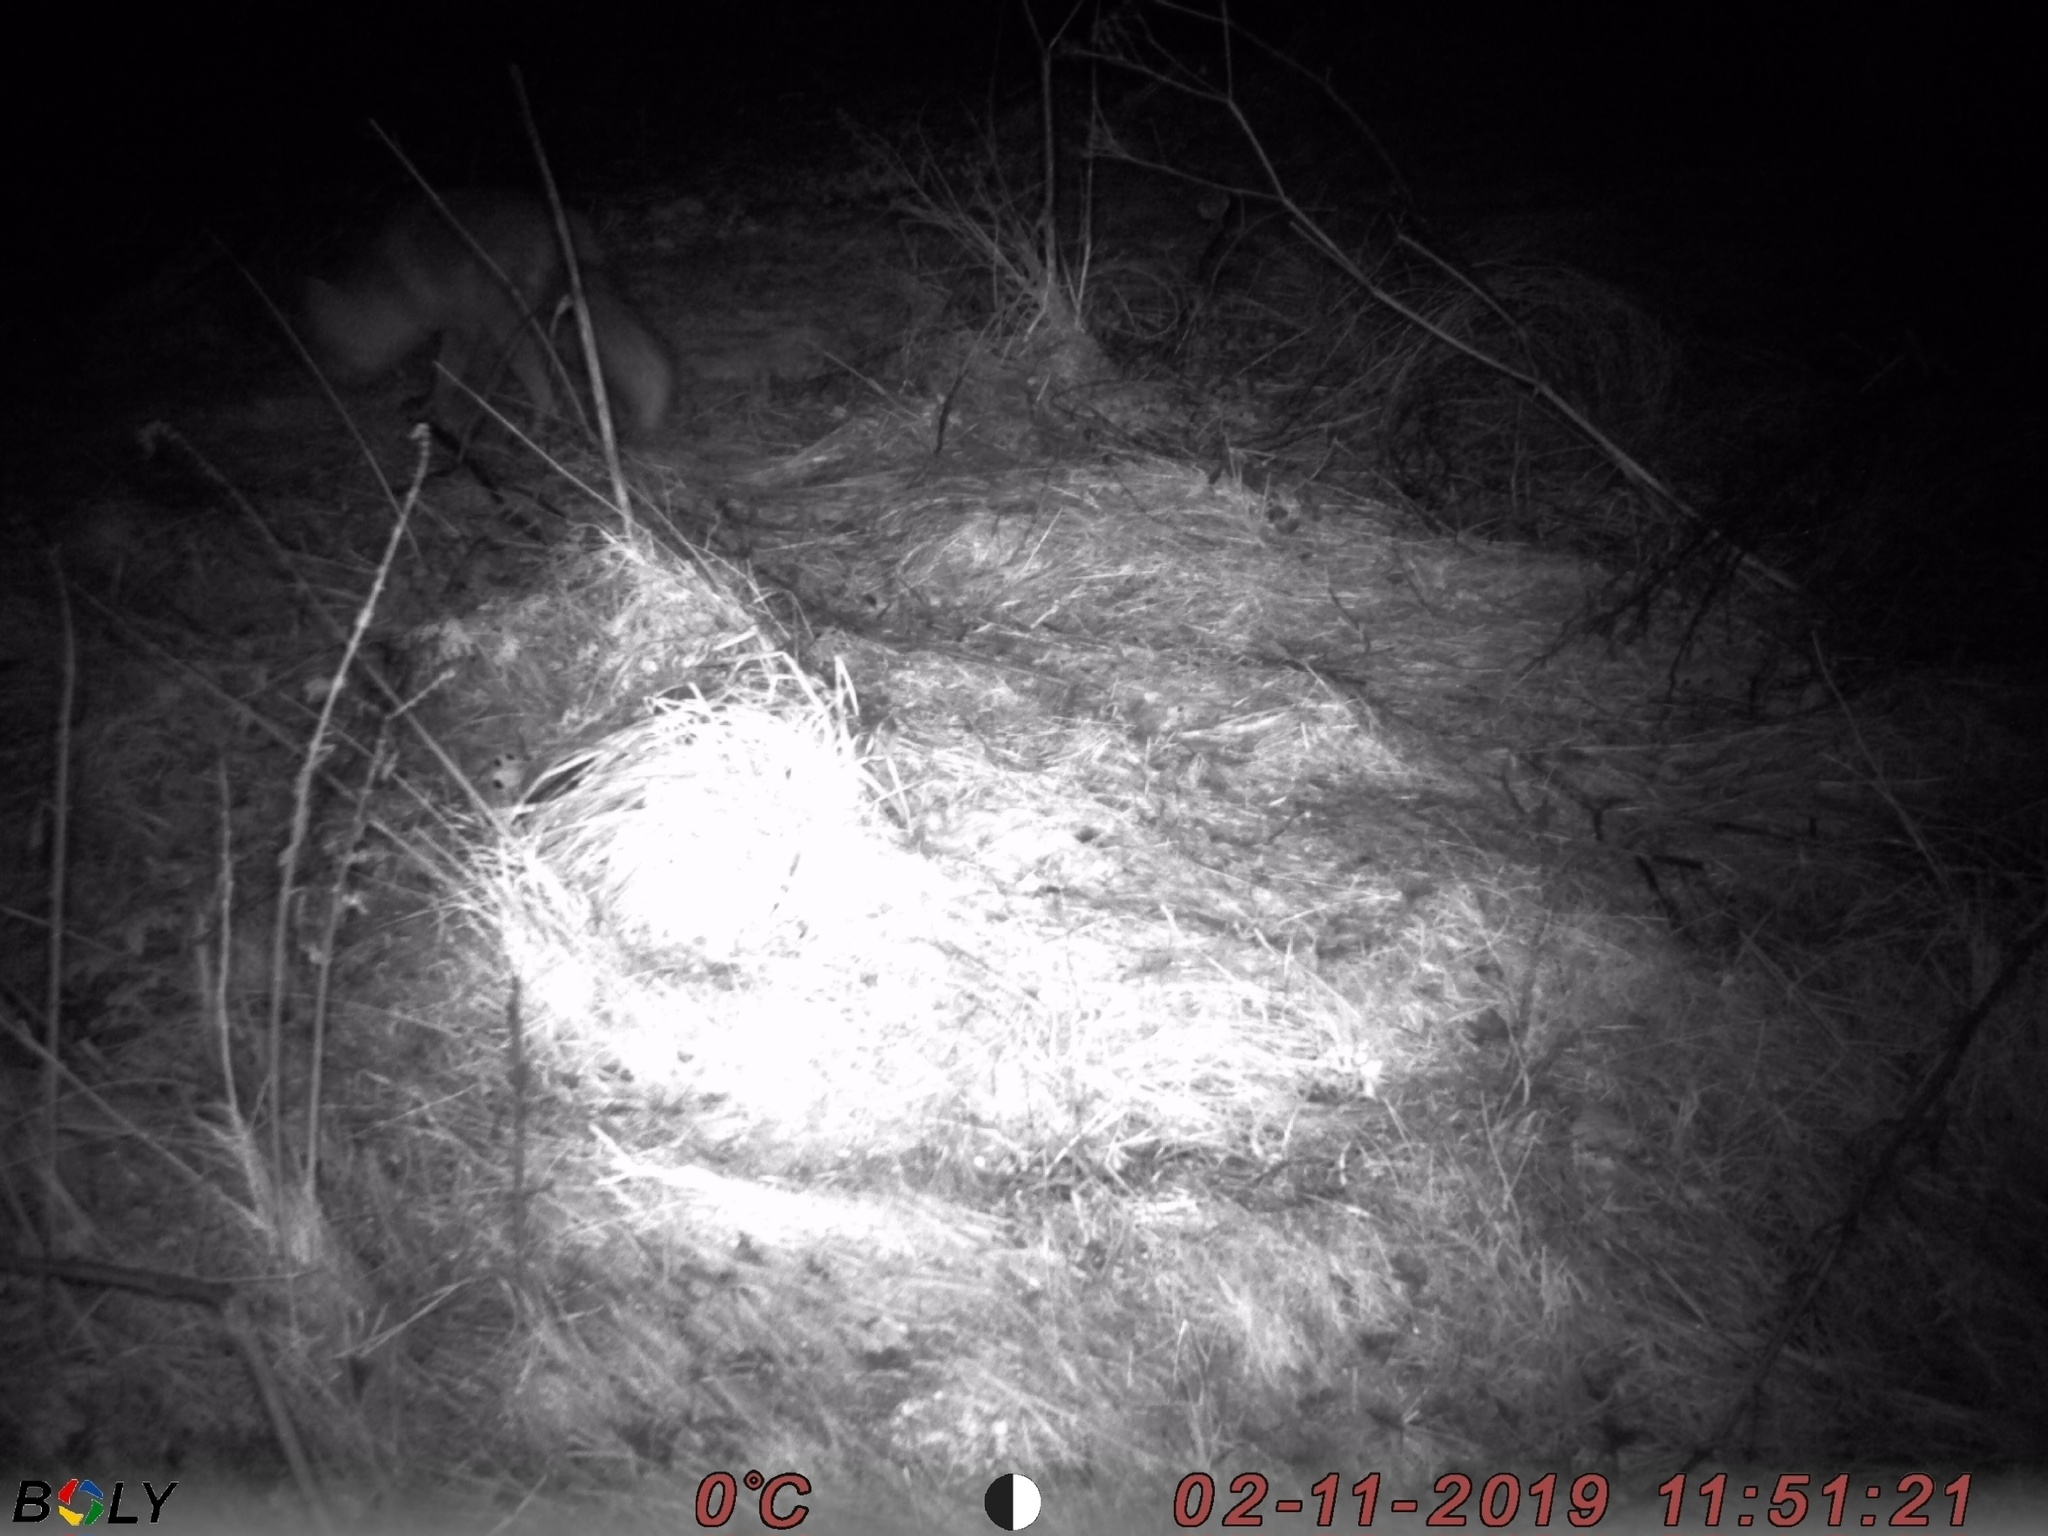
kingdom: Animalia
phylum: Chordata
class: Mammalia
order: Carnivora
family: Canidae
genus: Vulpes
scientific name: Vulpes vulpes
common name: Red fox
